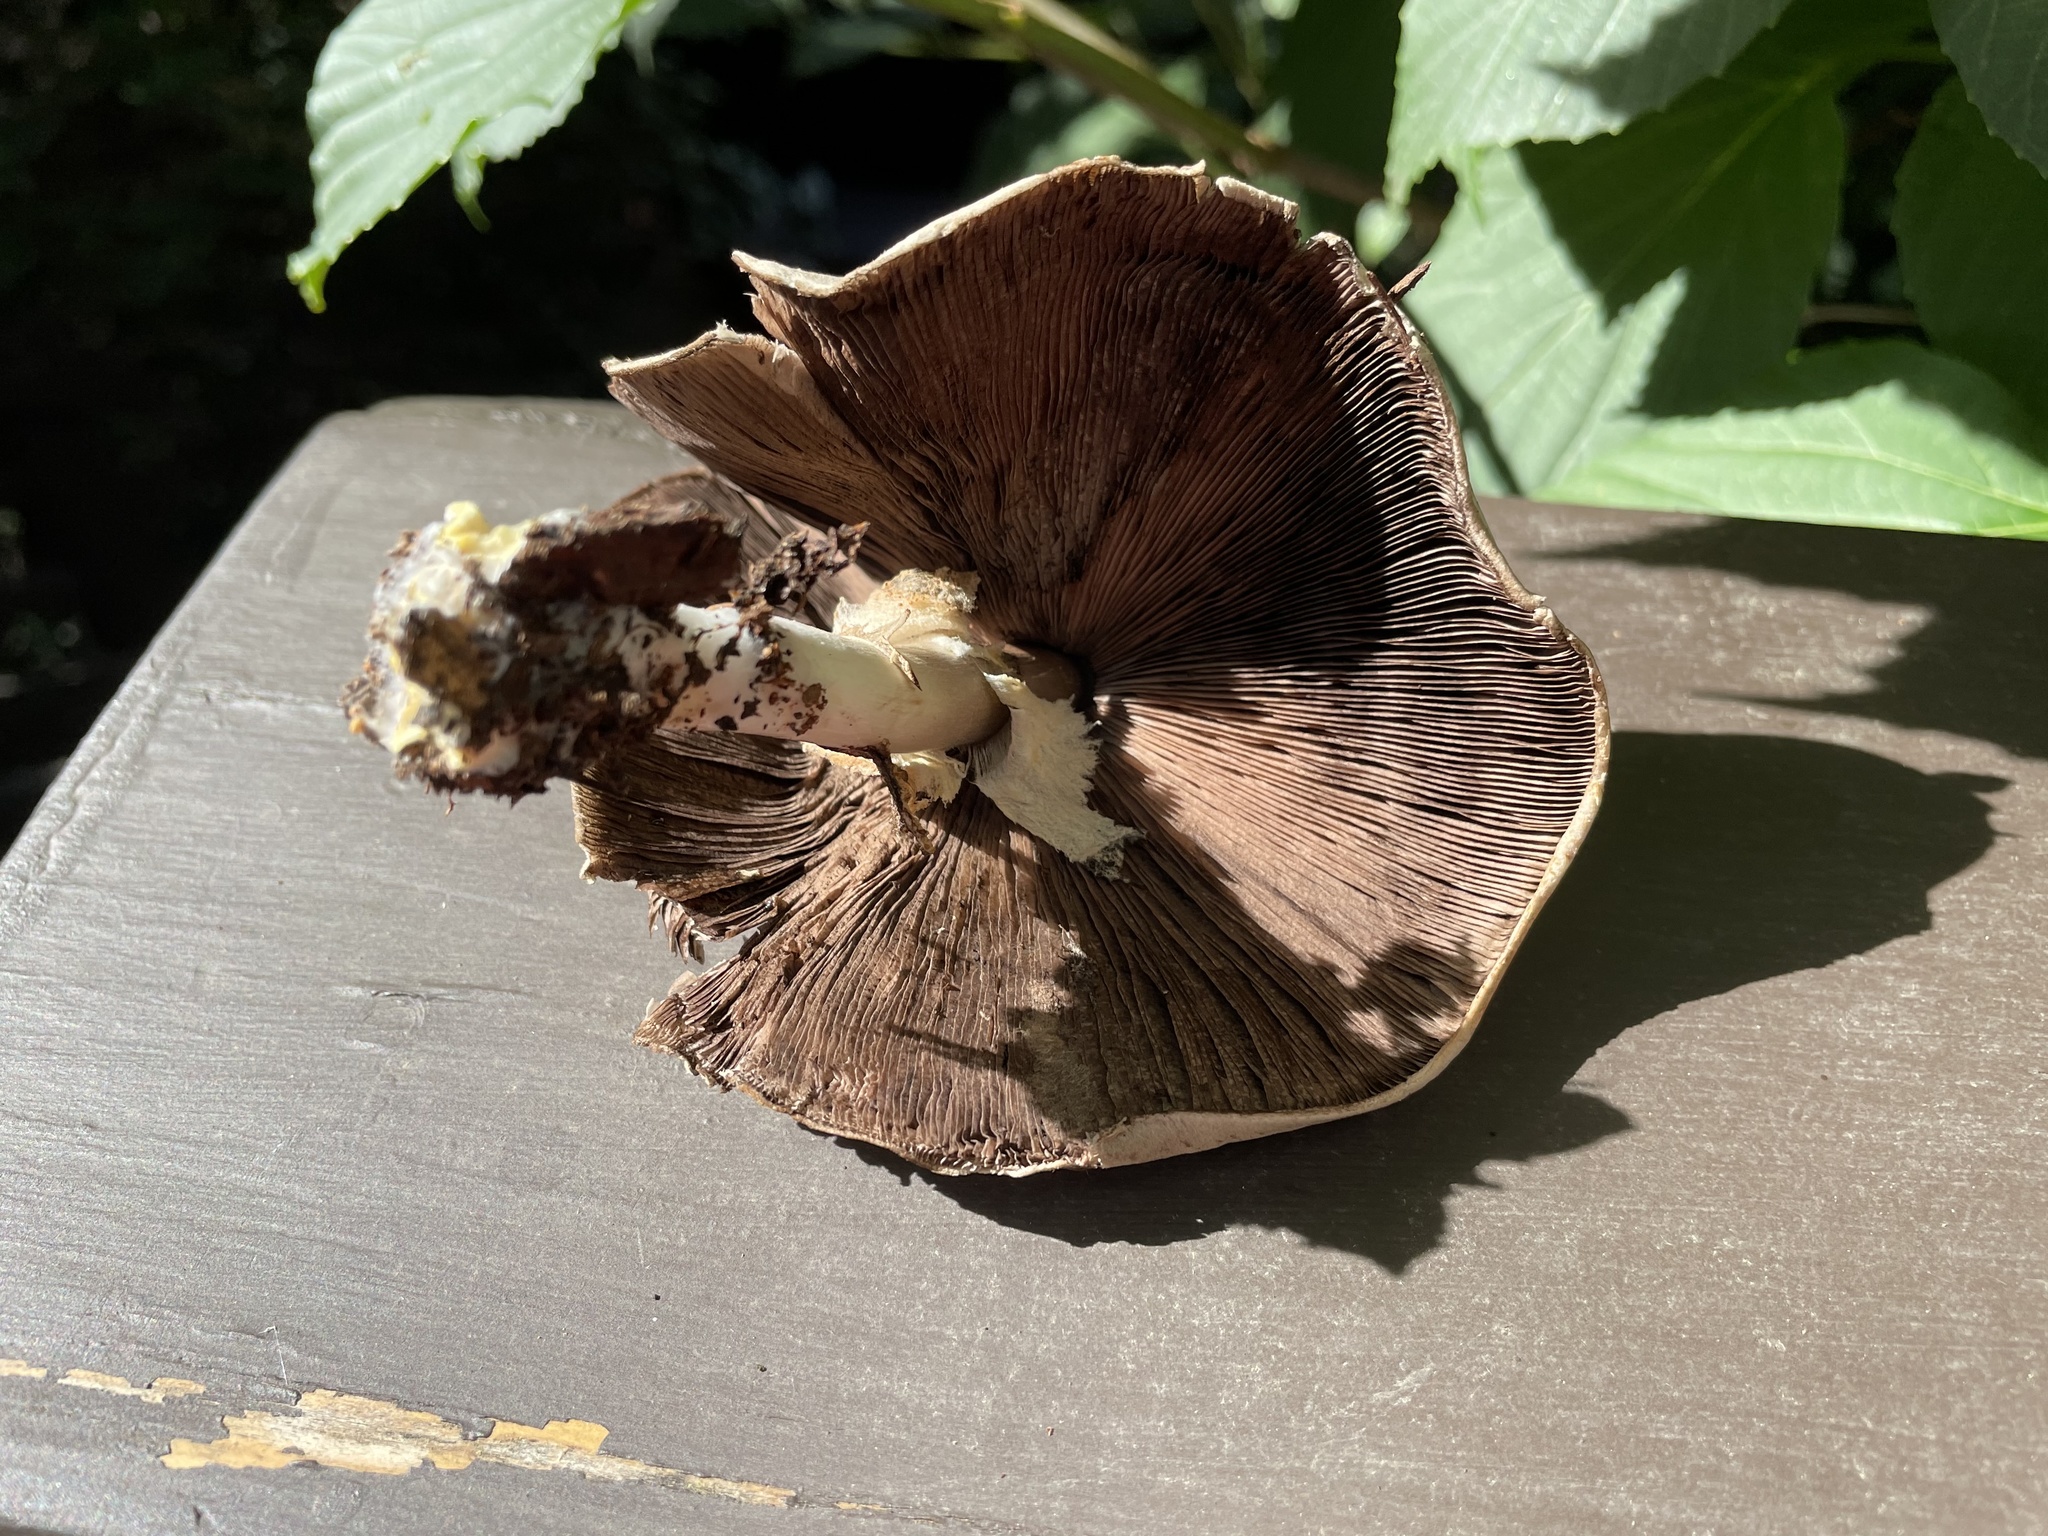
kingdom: Fungi
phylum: Basidiomycota
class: Agaricomycetes
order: Agaricales
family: Agaricaceae
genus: Agaricus
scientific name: Agaricus xanthodermus
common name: Yellow stainer
